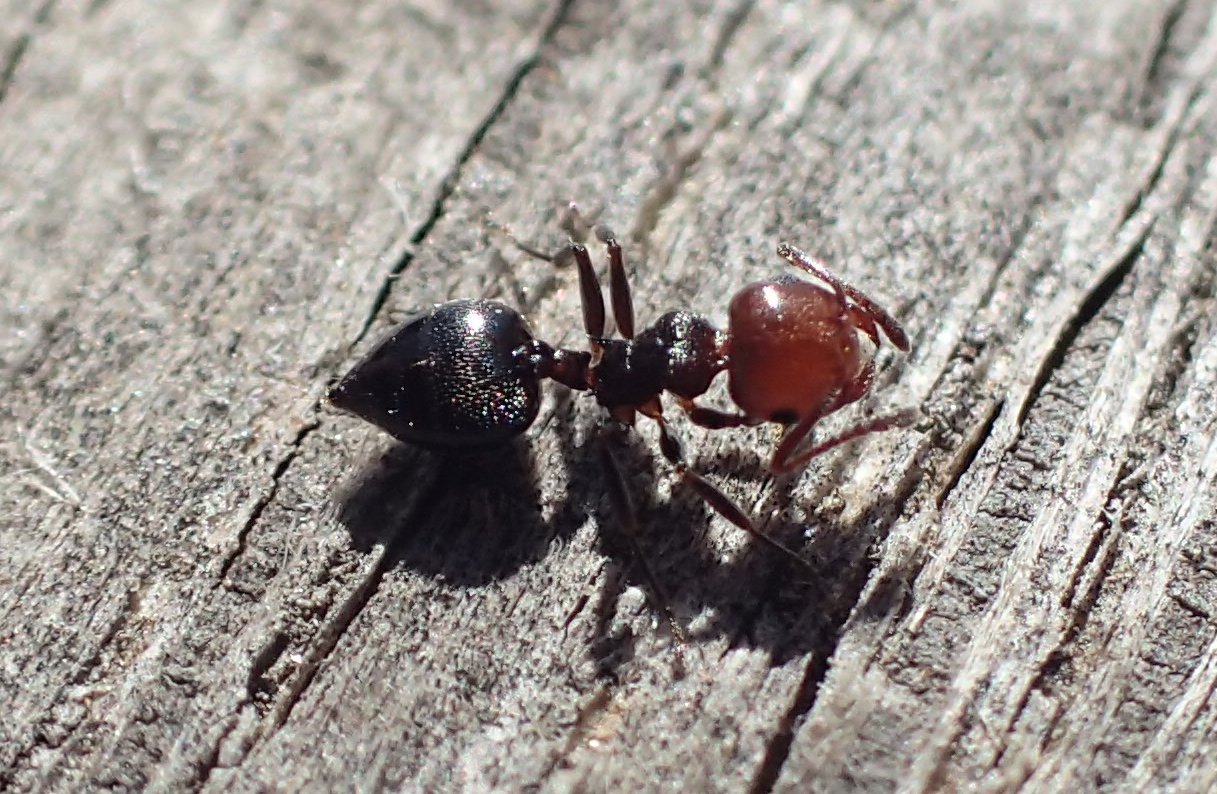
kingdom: Animalia
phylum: Arthropoda
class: Insecta
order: Hymenoptera
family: Formicidae
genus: Crematogaster
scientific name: Crematogaster scutellaris
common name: Fourmi du liège
